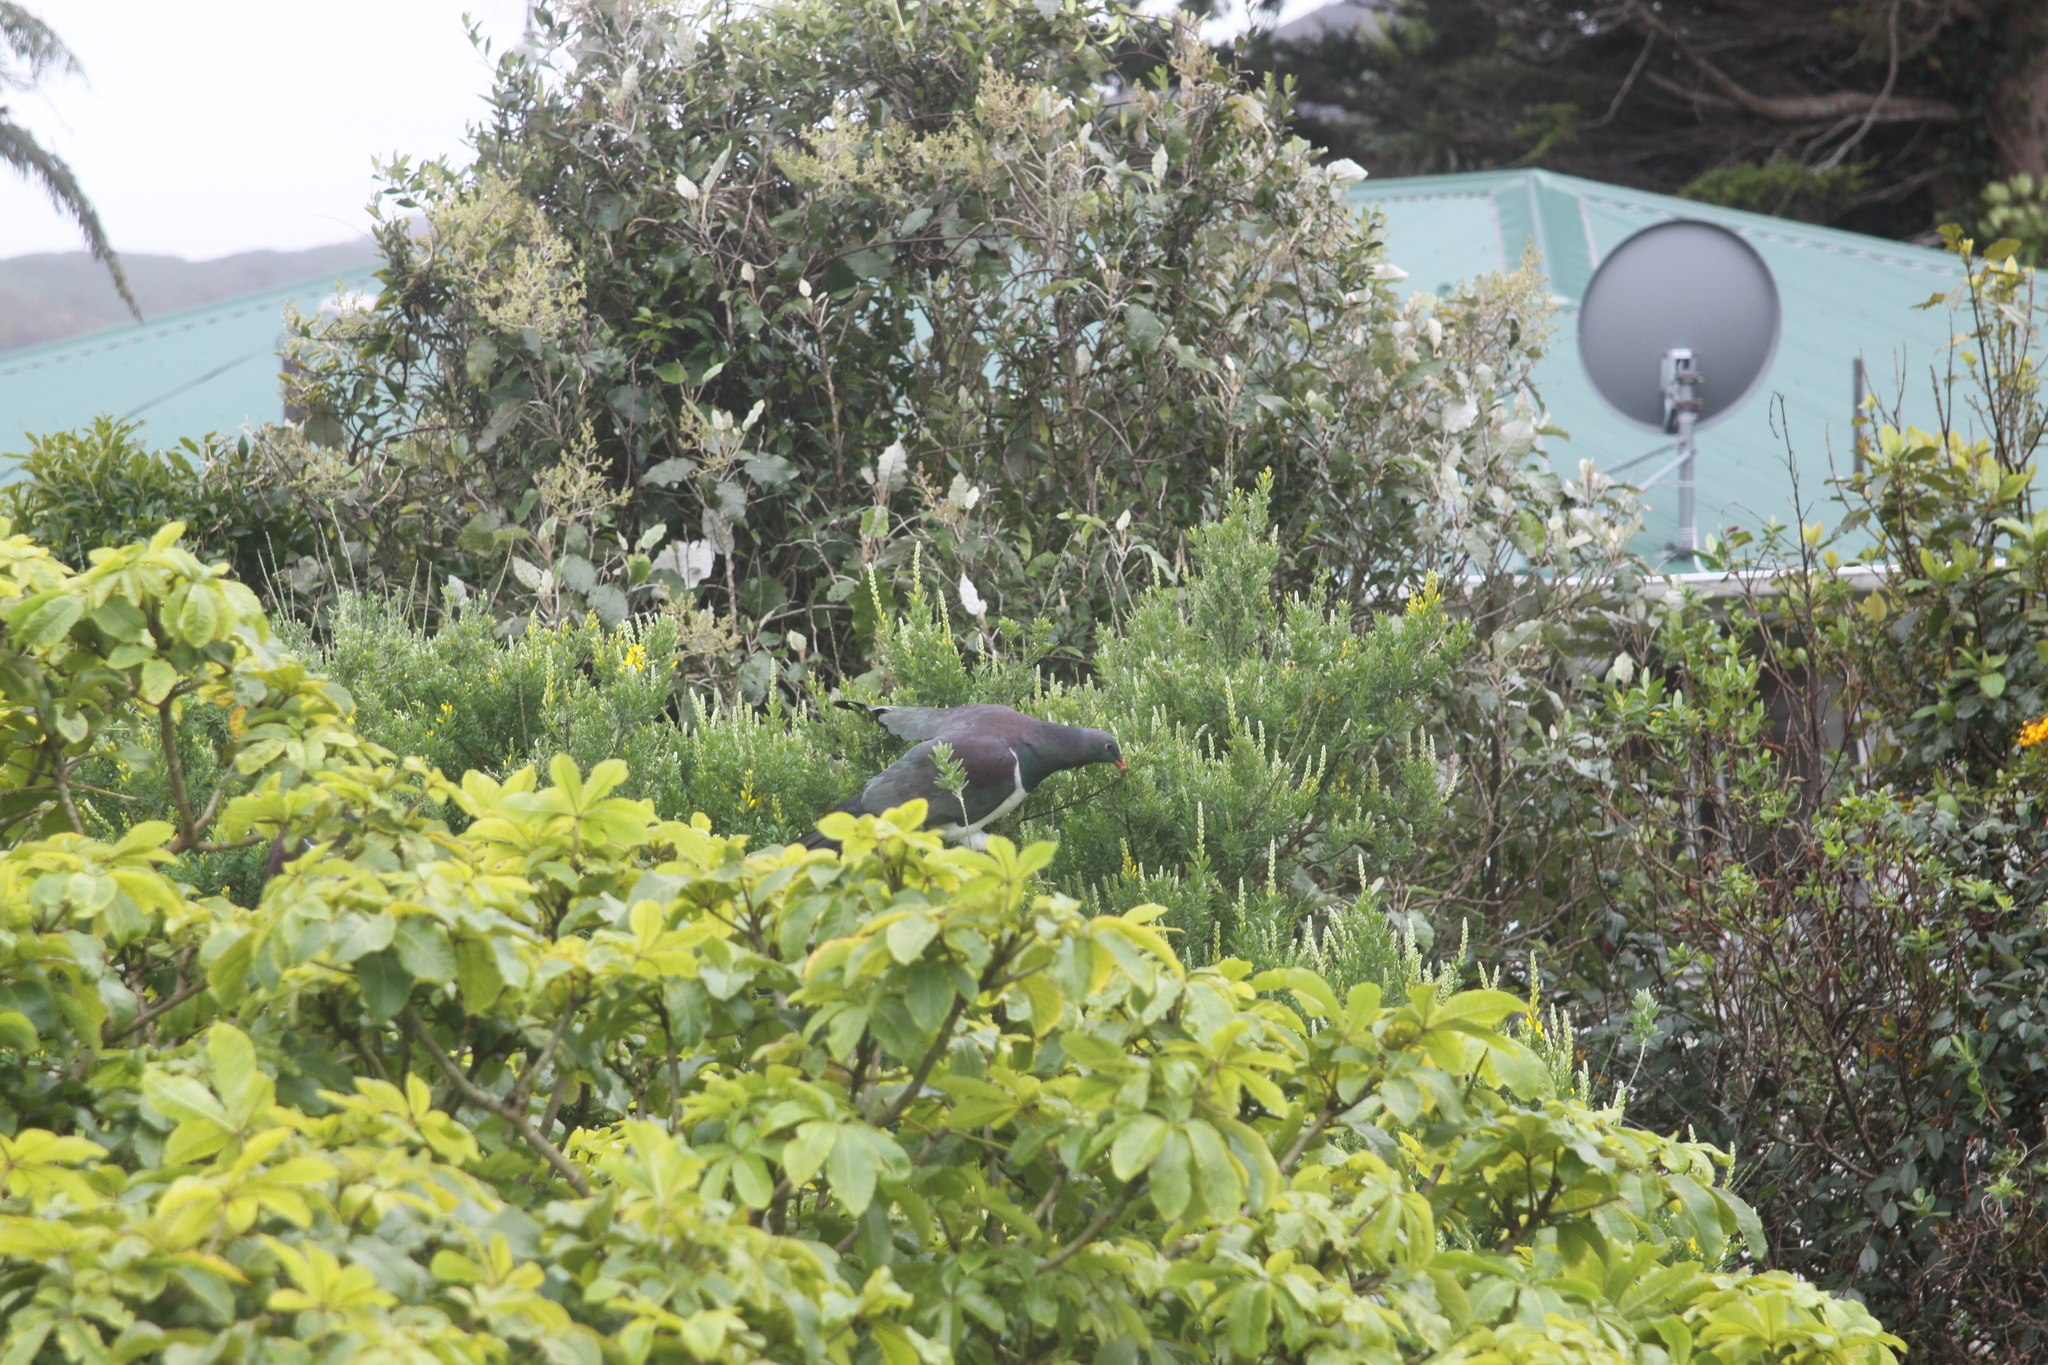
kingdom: Animalia
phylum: Chordata
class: Aves
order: Columbiformes
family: Columbidae
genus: Hemiphaga
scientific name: Hemiphaga novaeseelandiae
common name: New zealand pigeon
